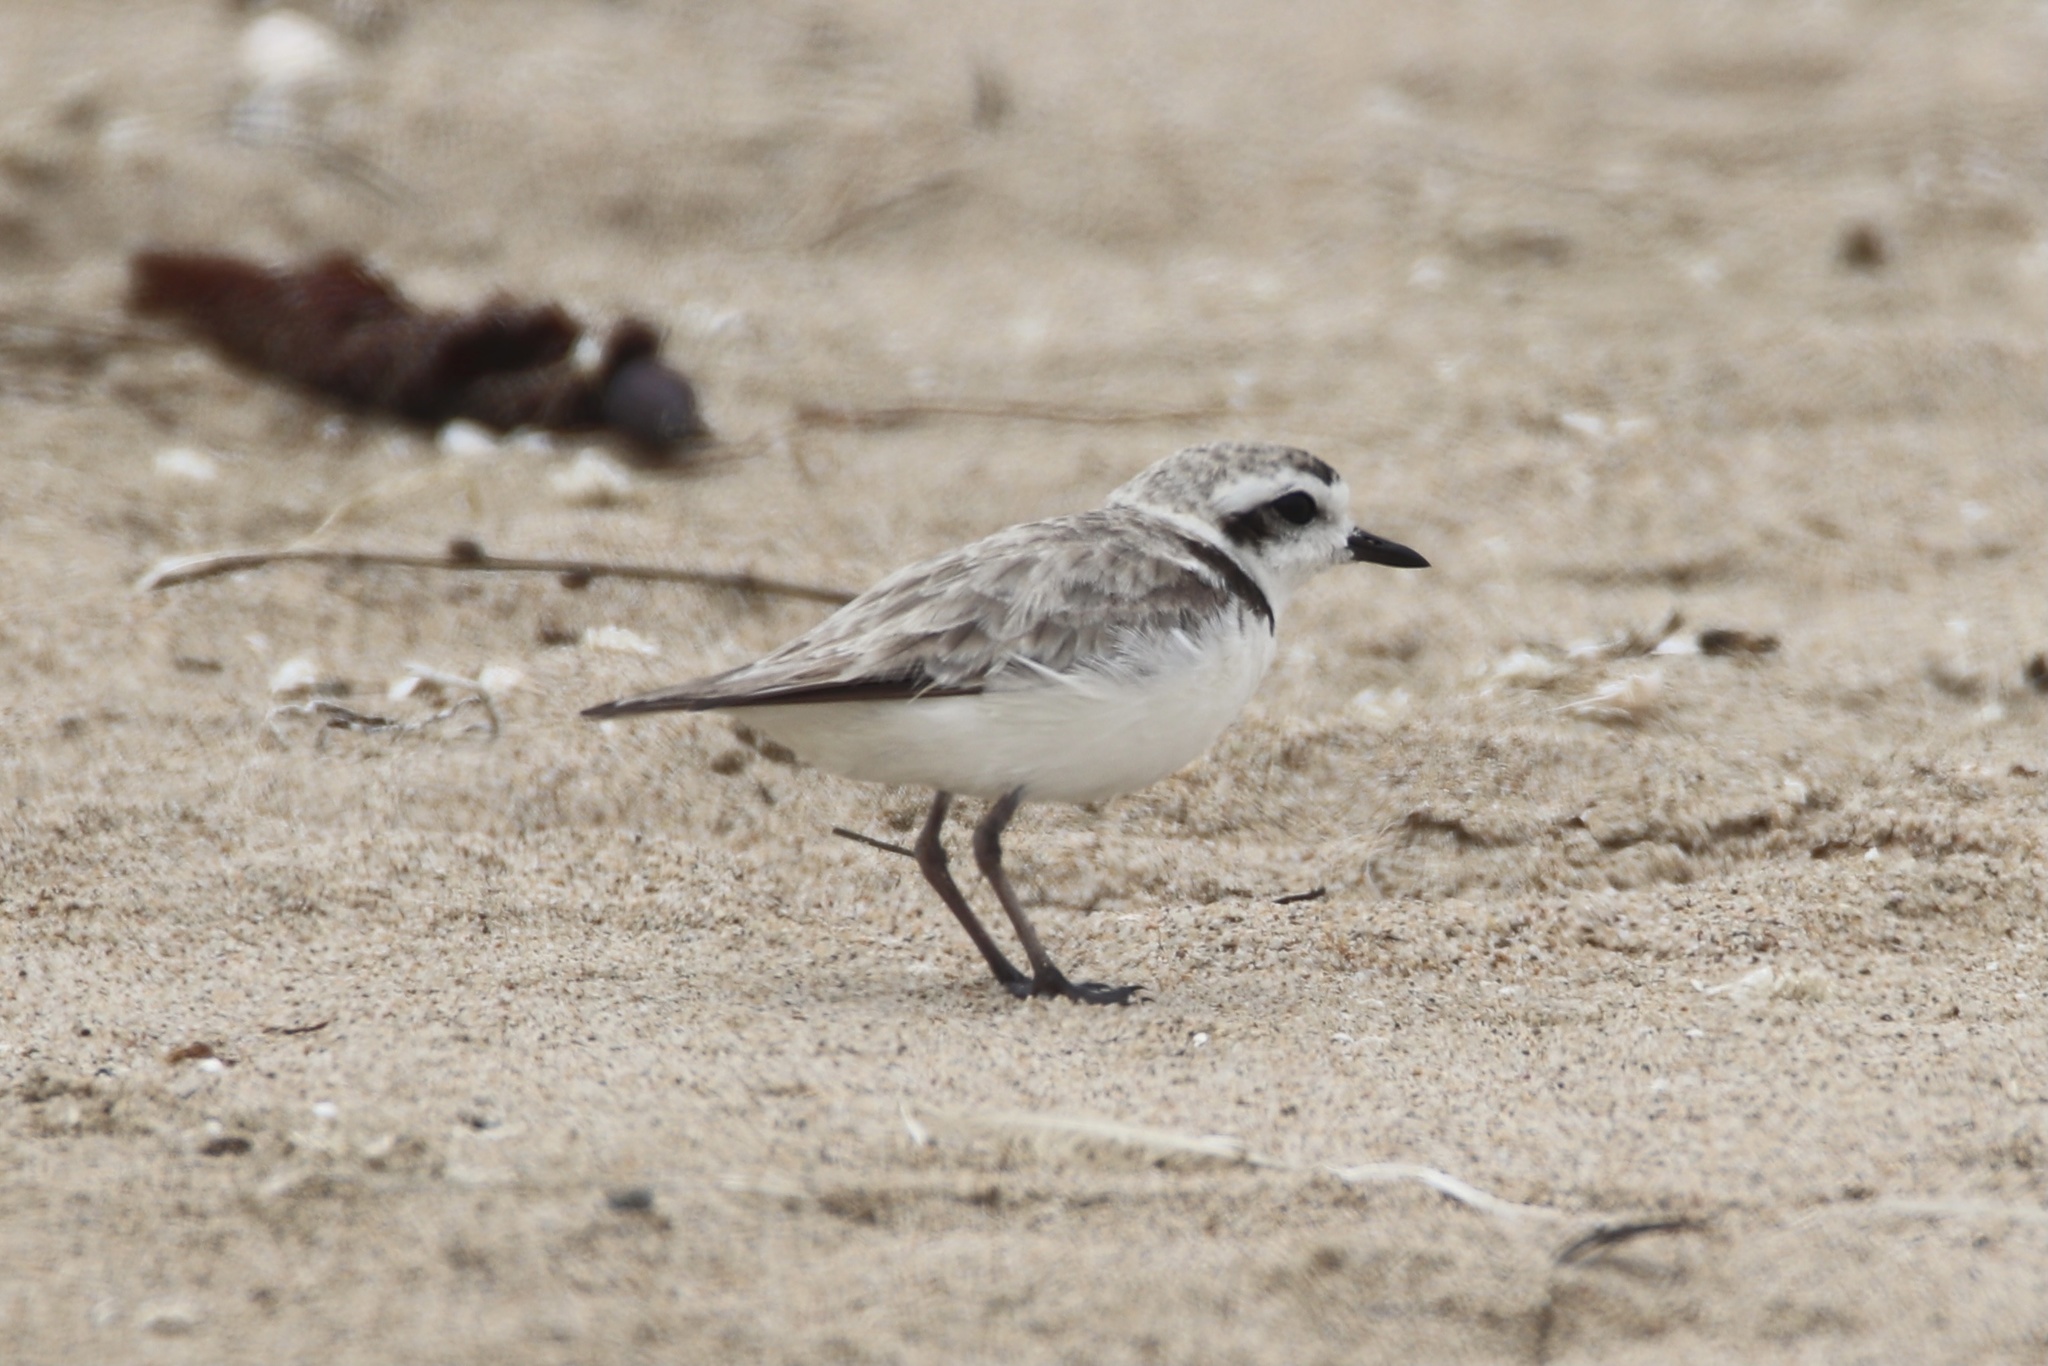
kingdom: Animalia
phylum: Chordata
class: Aves
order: Charadriiformes
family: Charadriidae
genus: Anarhynchus
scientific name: Anarhynchus
